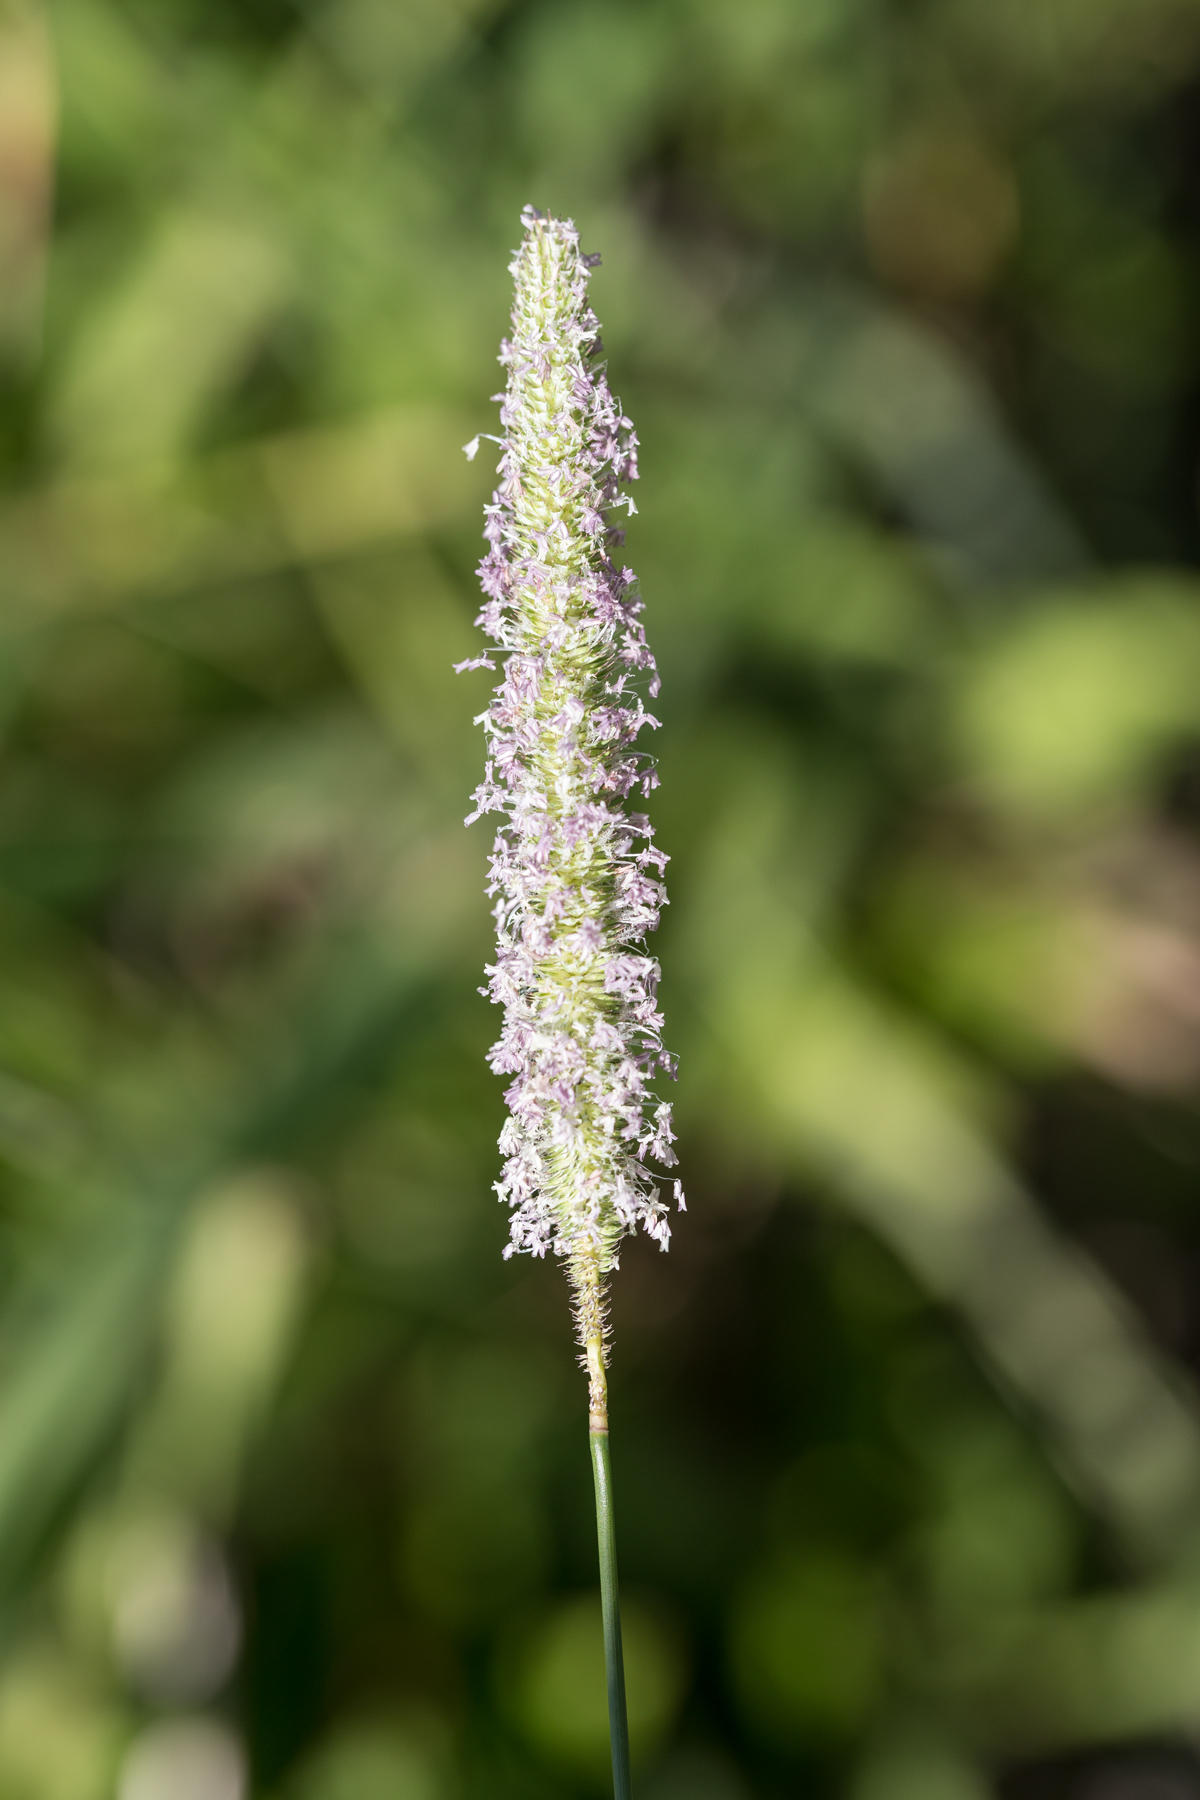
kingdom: Plantae
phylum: Tracheophyta
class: Liliopsida
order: Poales
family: Poaceae
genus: Phleum
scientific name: Phleum pratense
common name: Timothy grass
